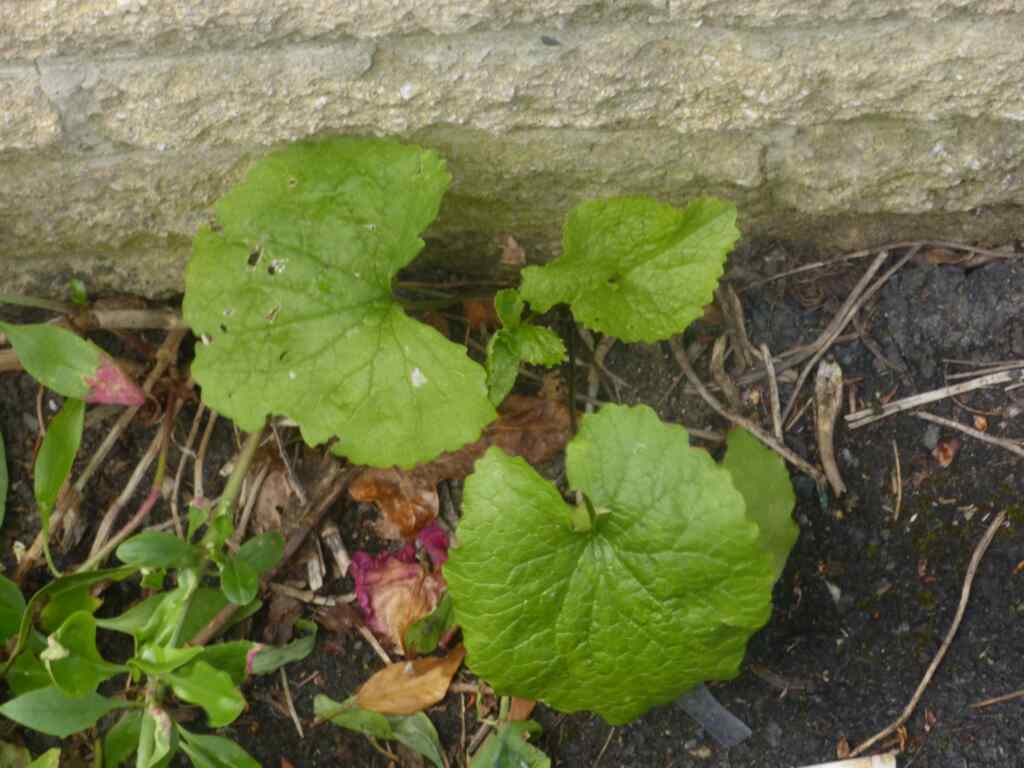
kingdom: Plantae
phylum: Tracheophyta
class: Magnoliopsida
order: Brassicales
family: Brassicaceae
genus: Alliaria
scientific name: Alliaria petiolata
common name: Garlic mustard
